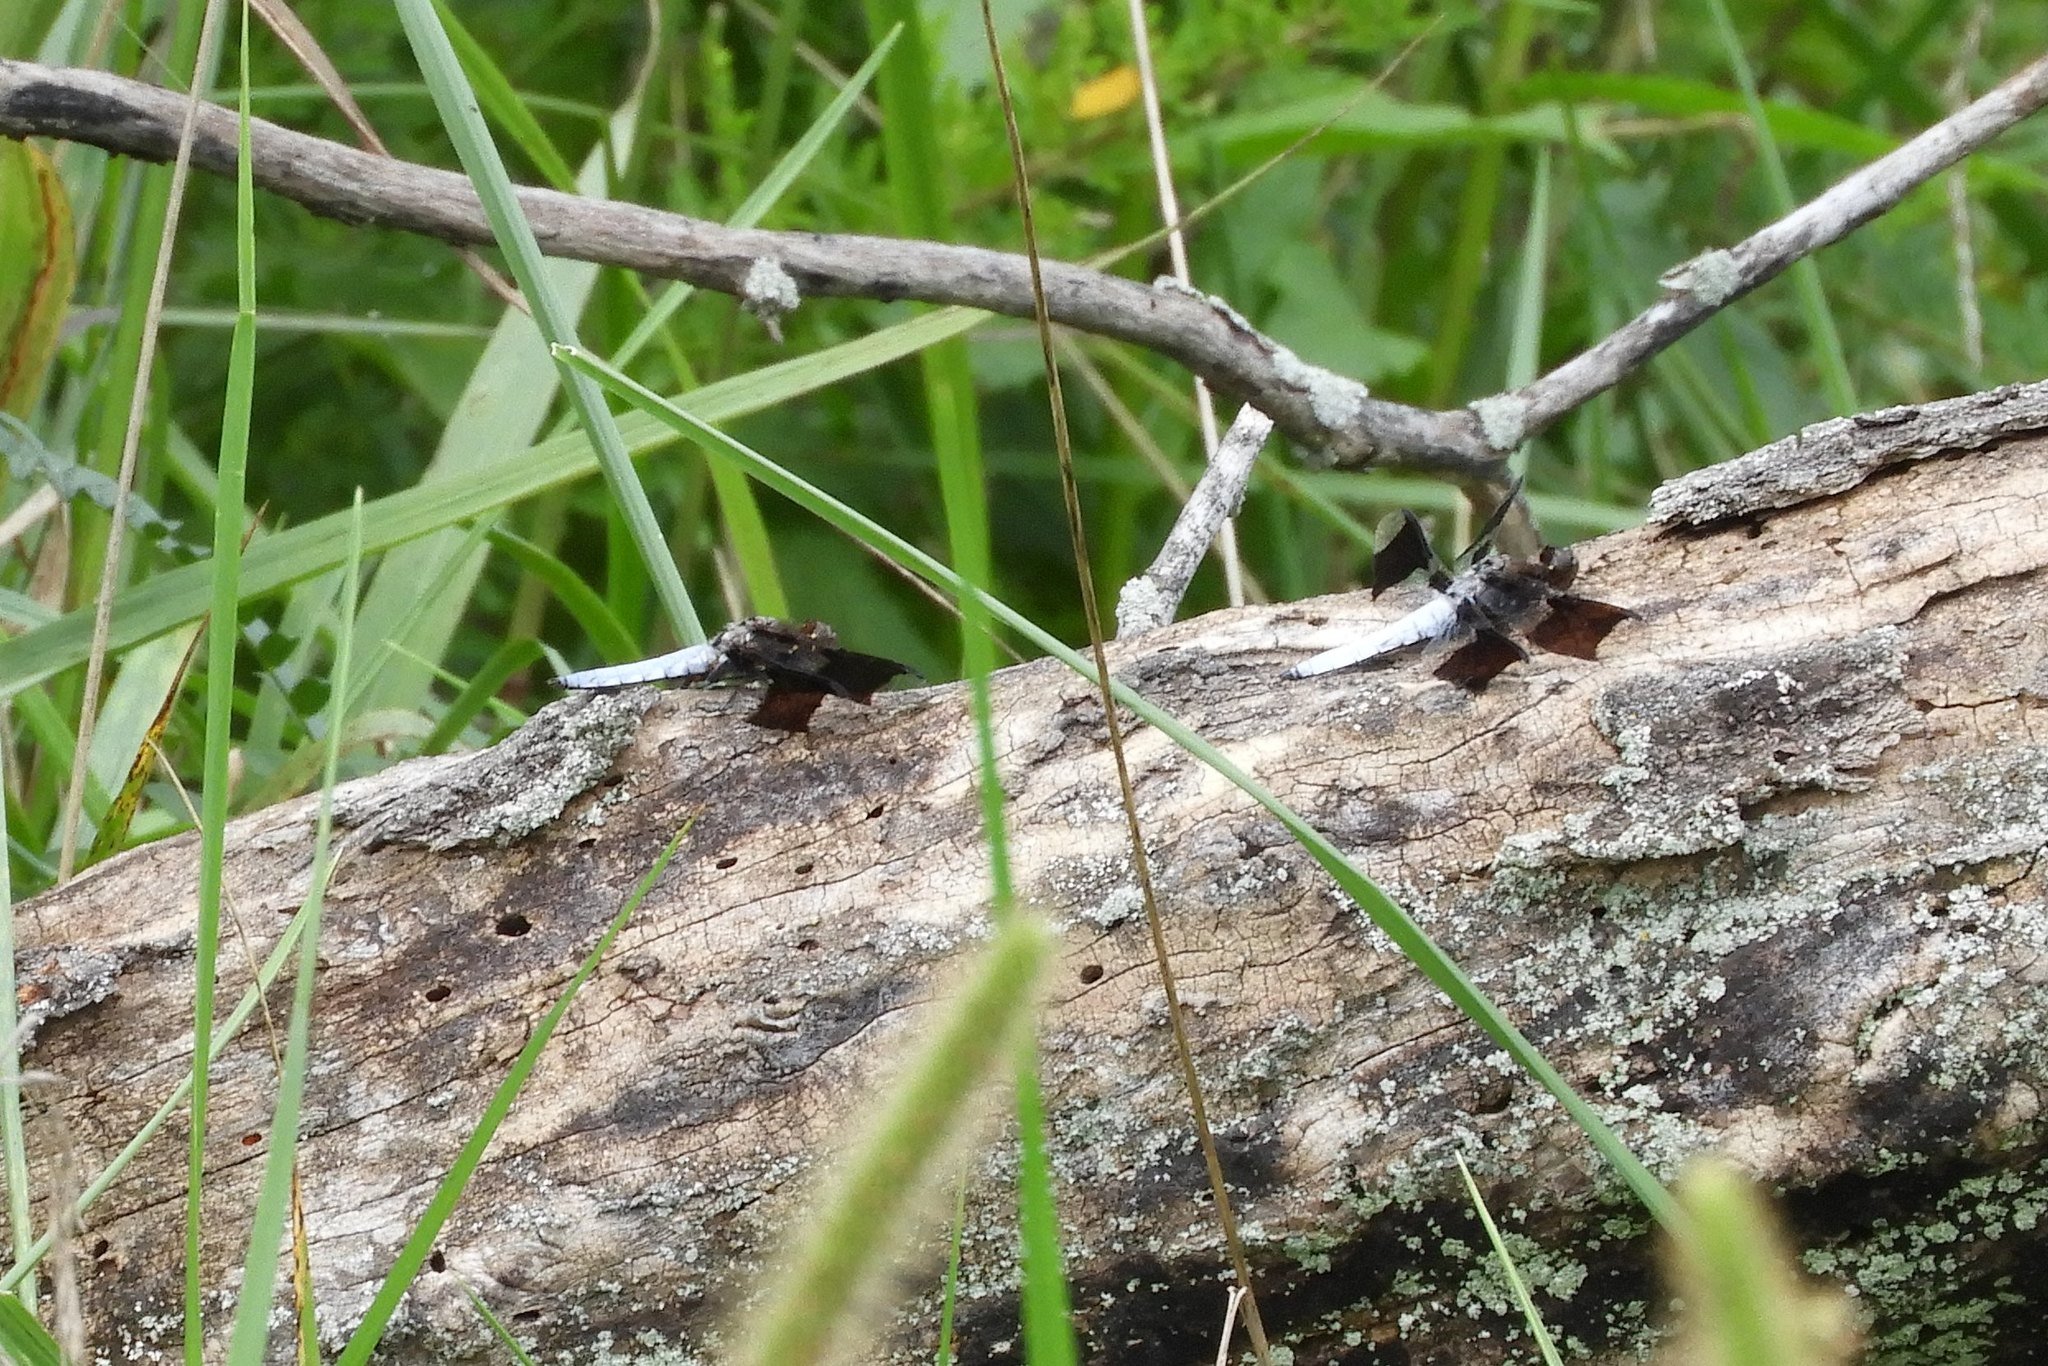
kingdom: Animalia
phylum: Arthropoda
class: Insecta
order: Odonata
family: Libellulidae
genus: Plathemis
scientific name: Plathemis lydia
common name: Common whitetail
